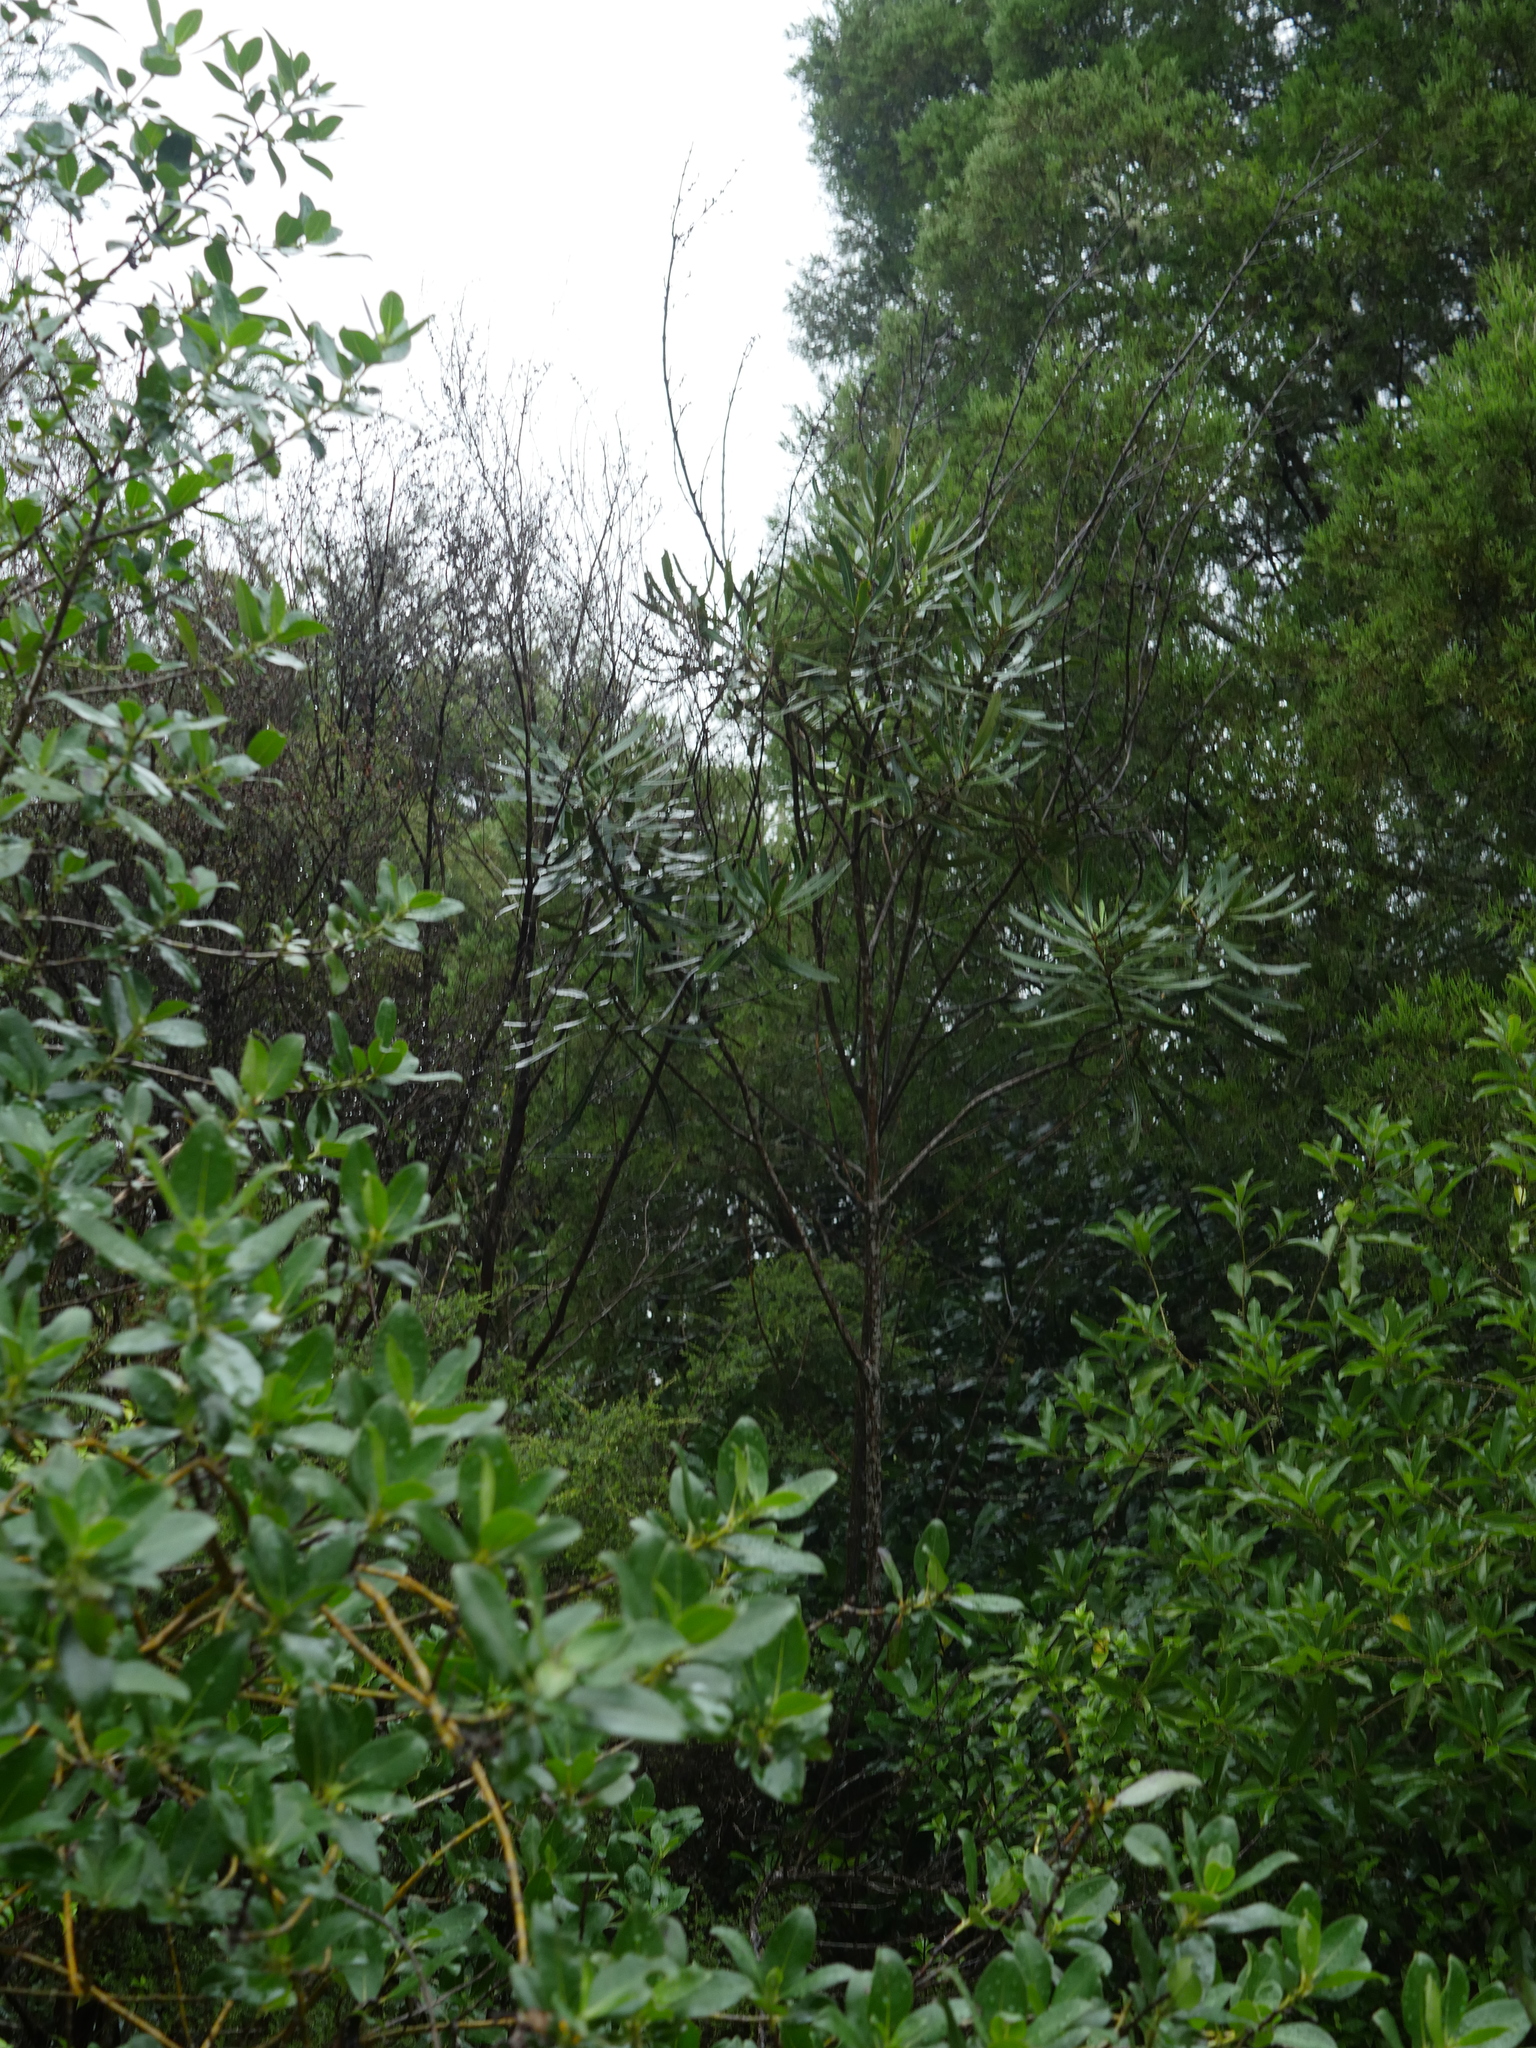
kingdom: Plantae
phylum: Tracheophyta
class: Magnoliopsida
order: Apiales
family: Araliaceae
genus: Pseudopanax
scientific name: Pseudopanax crassifolius
